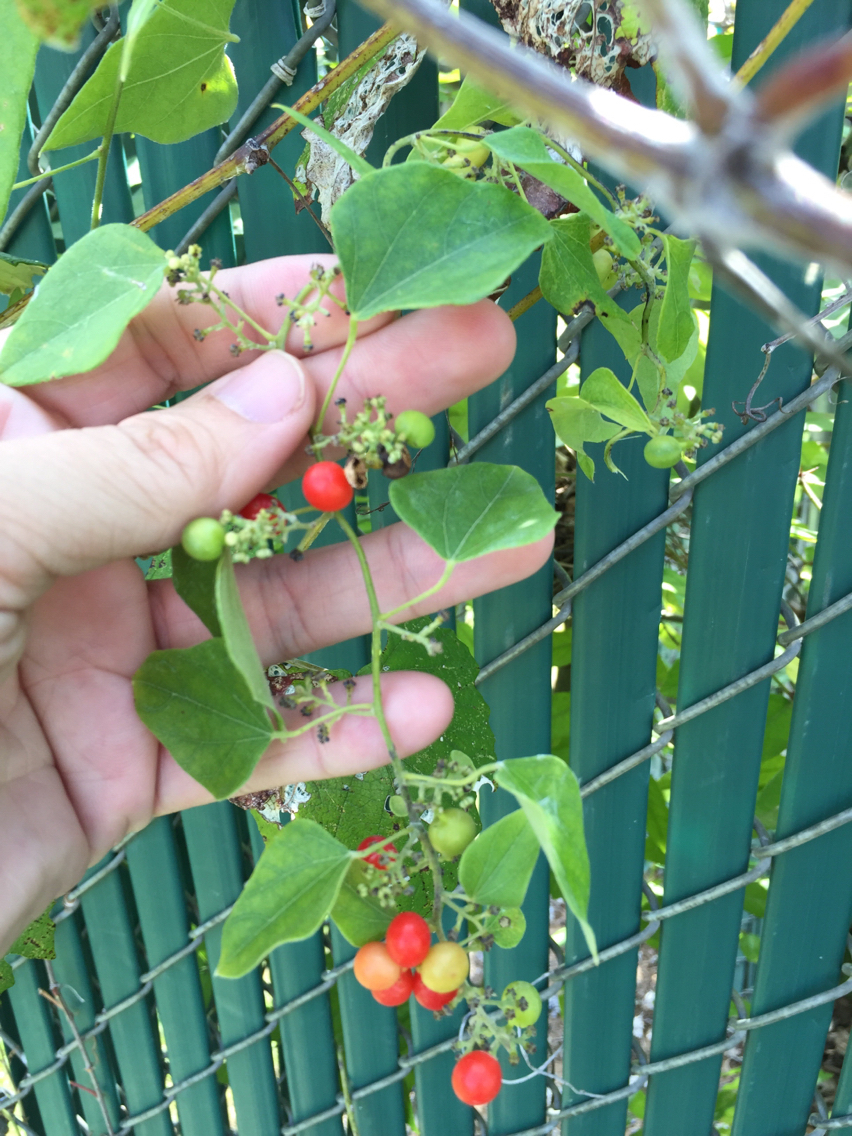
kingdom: Plantae
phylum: Tracheophyta
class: Magnoliopsida
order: Ranunculales
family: Menispermaceae
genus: Cocculus
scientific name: Cocculus carolinus
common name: Carolina moonseed
